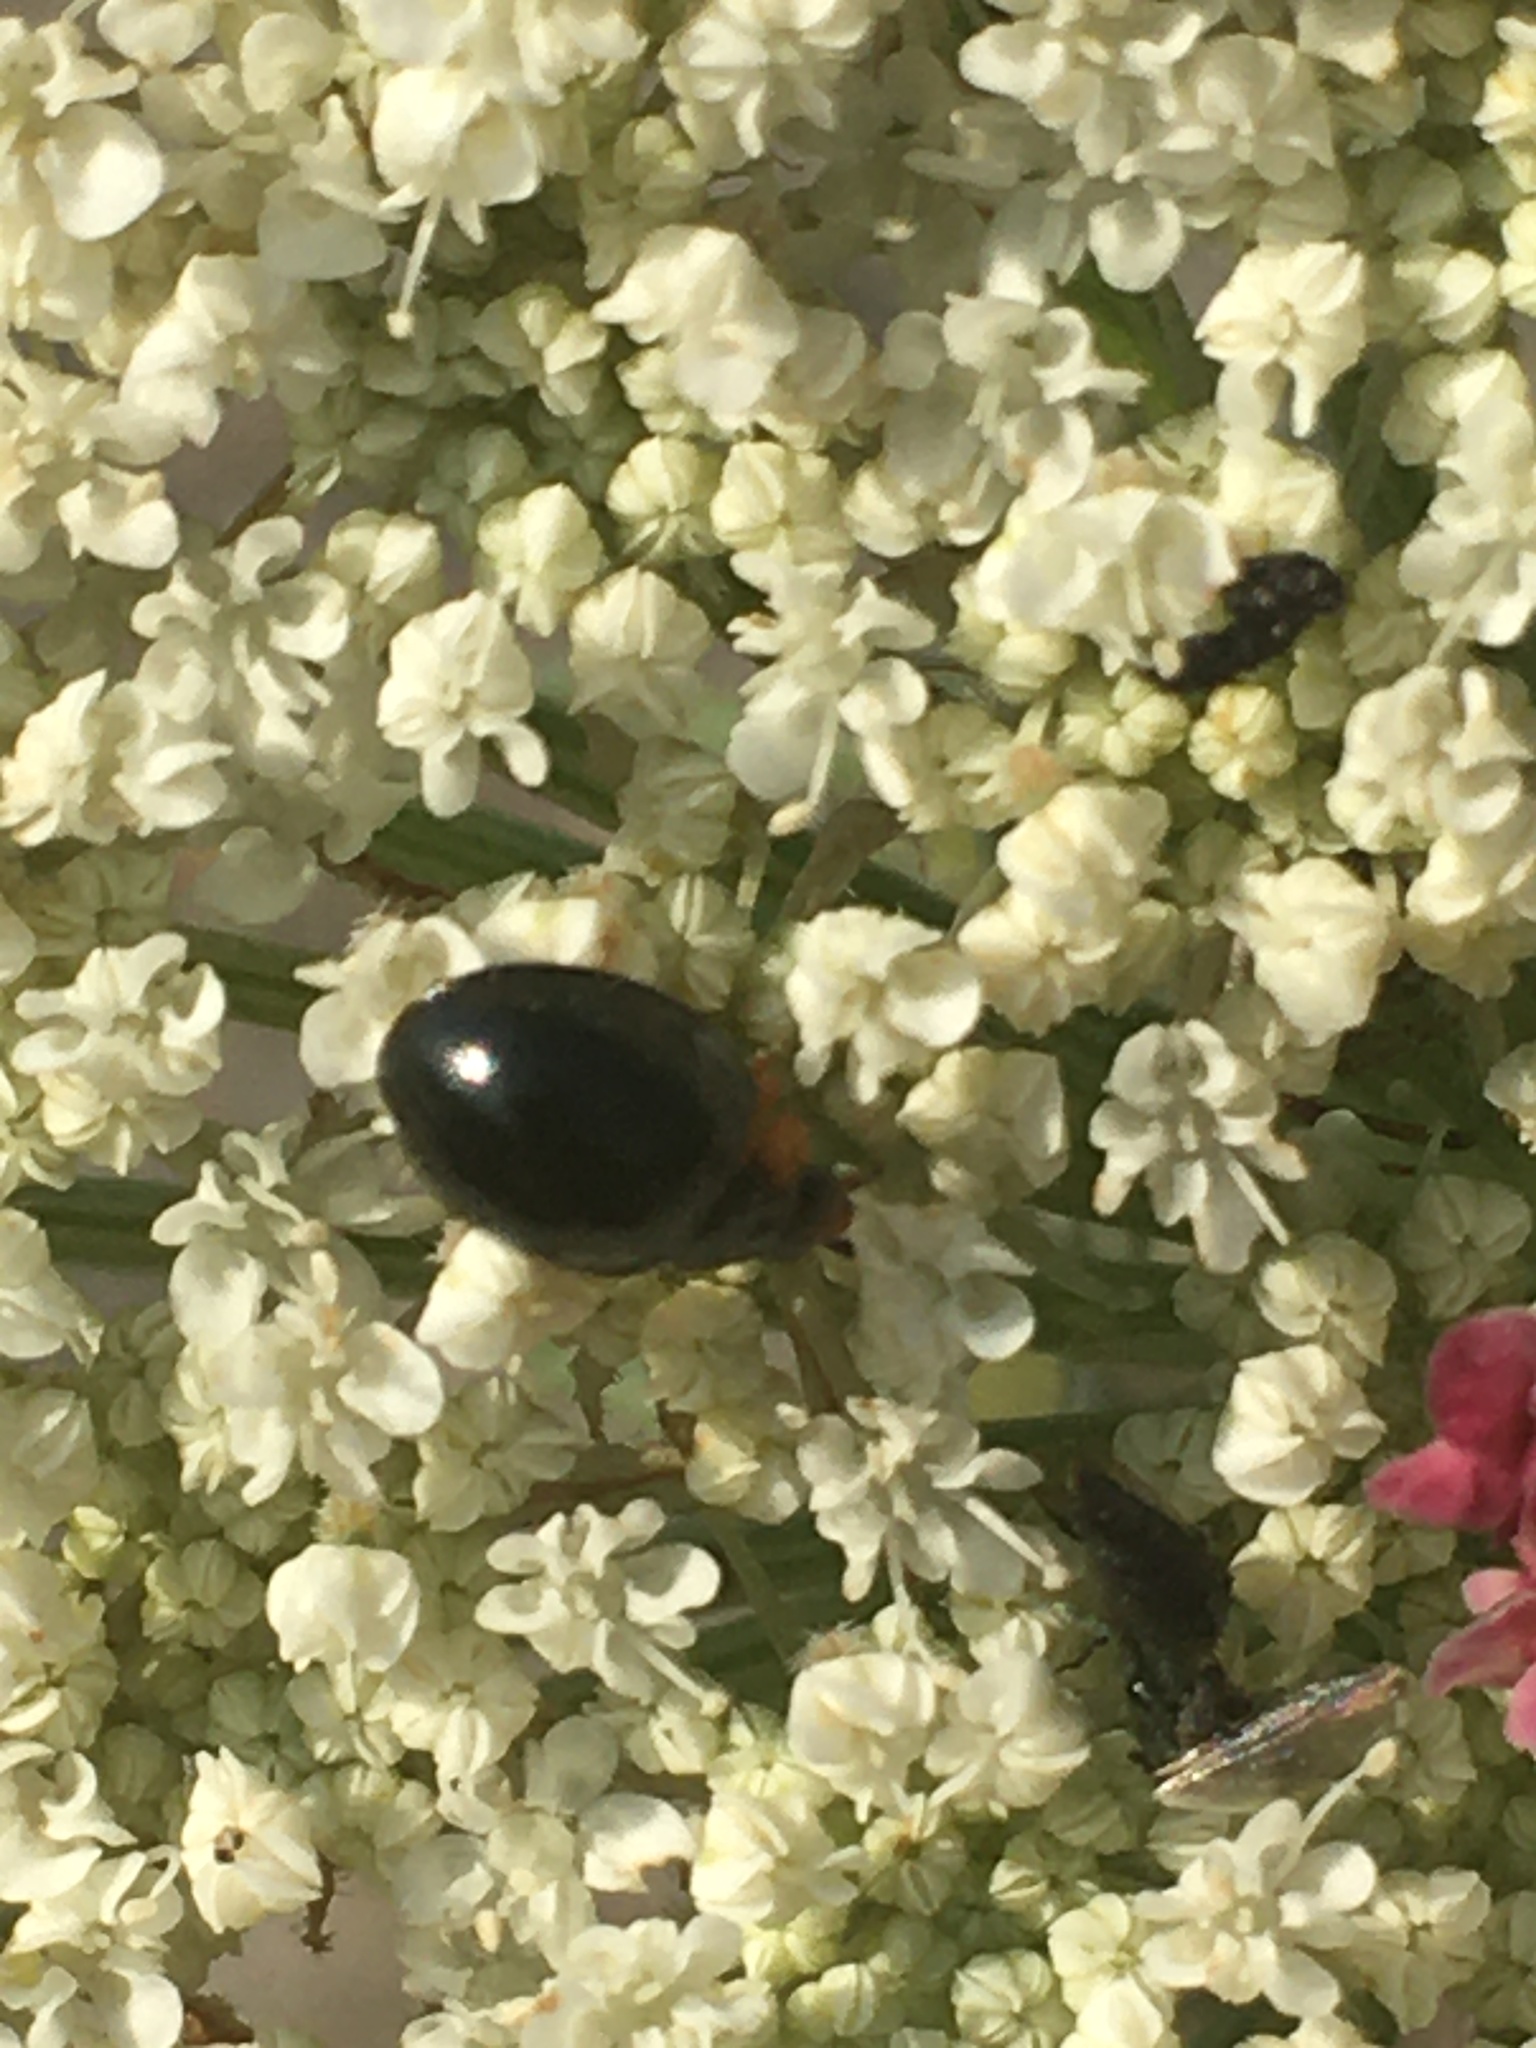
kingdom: Animalia
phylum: Arthropoda
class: Insecta
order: Coleoptera
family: Coccinellidae
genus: Parexochomus
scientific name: Parexochomus nigromaculatus
